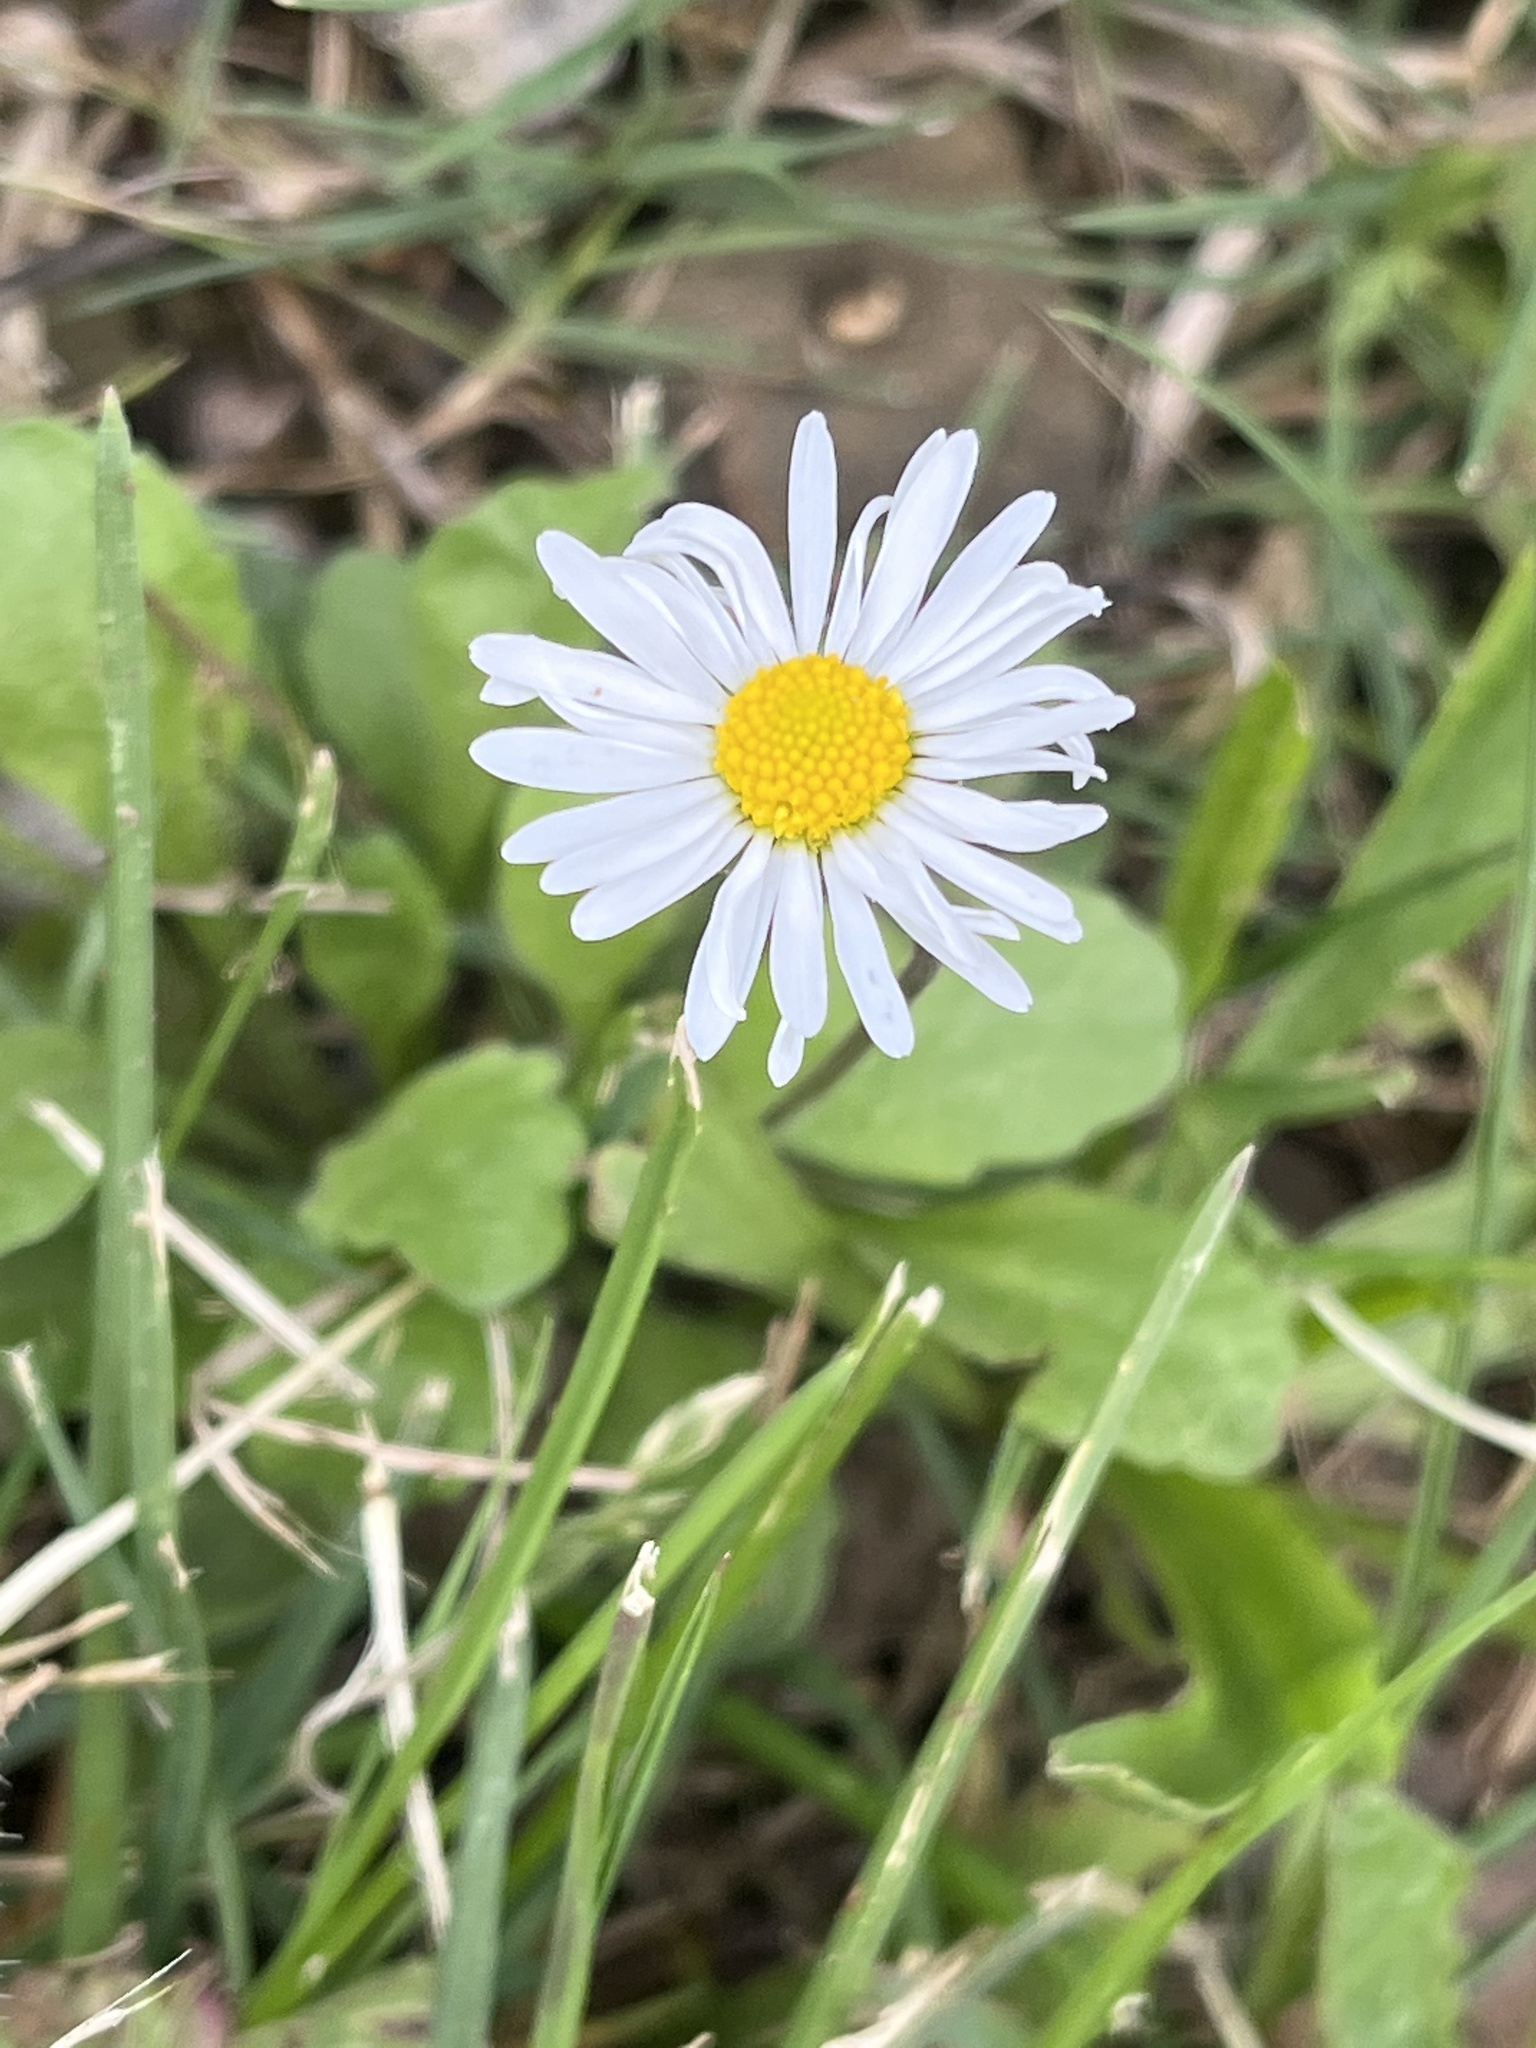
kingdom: Plantae
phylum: Tracheophyta
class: Magnoliopsida
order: Asterales
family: Asteraceae
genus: Bellis
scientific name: Bellis perennis
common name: Lawndaisy
